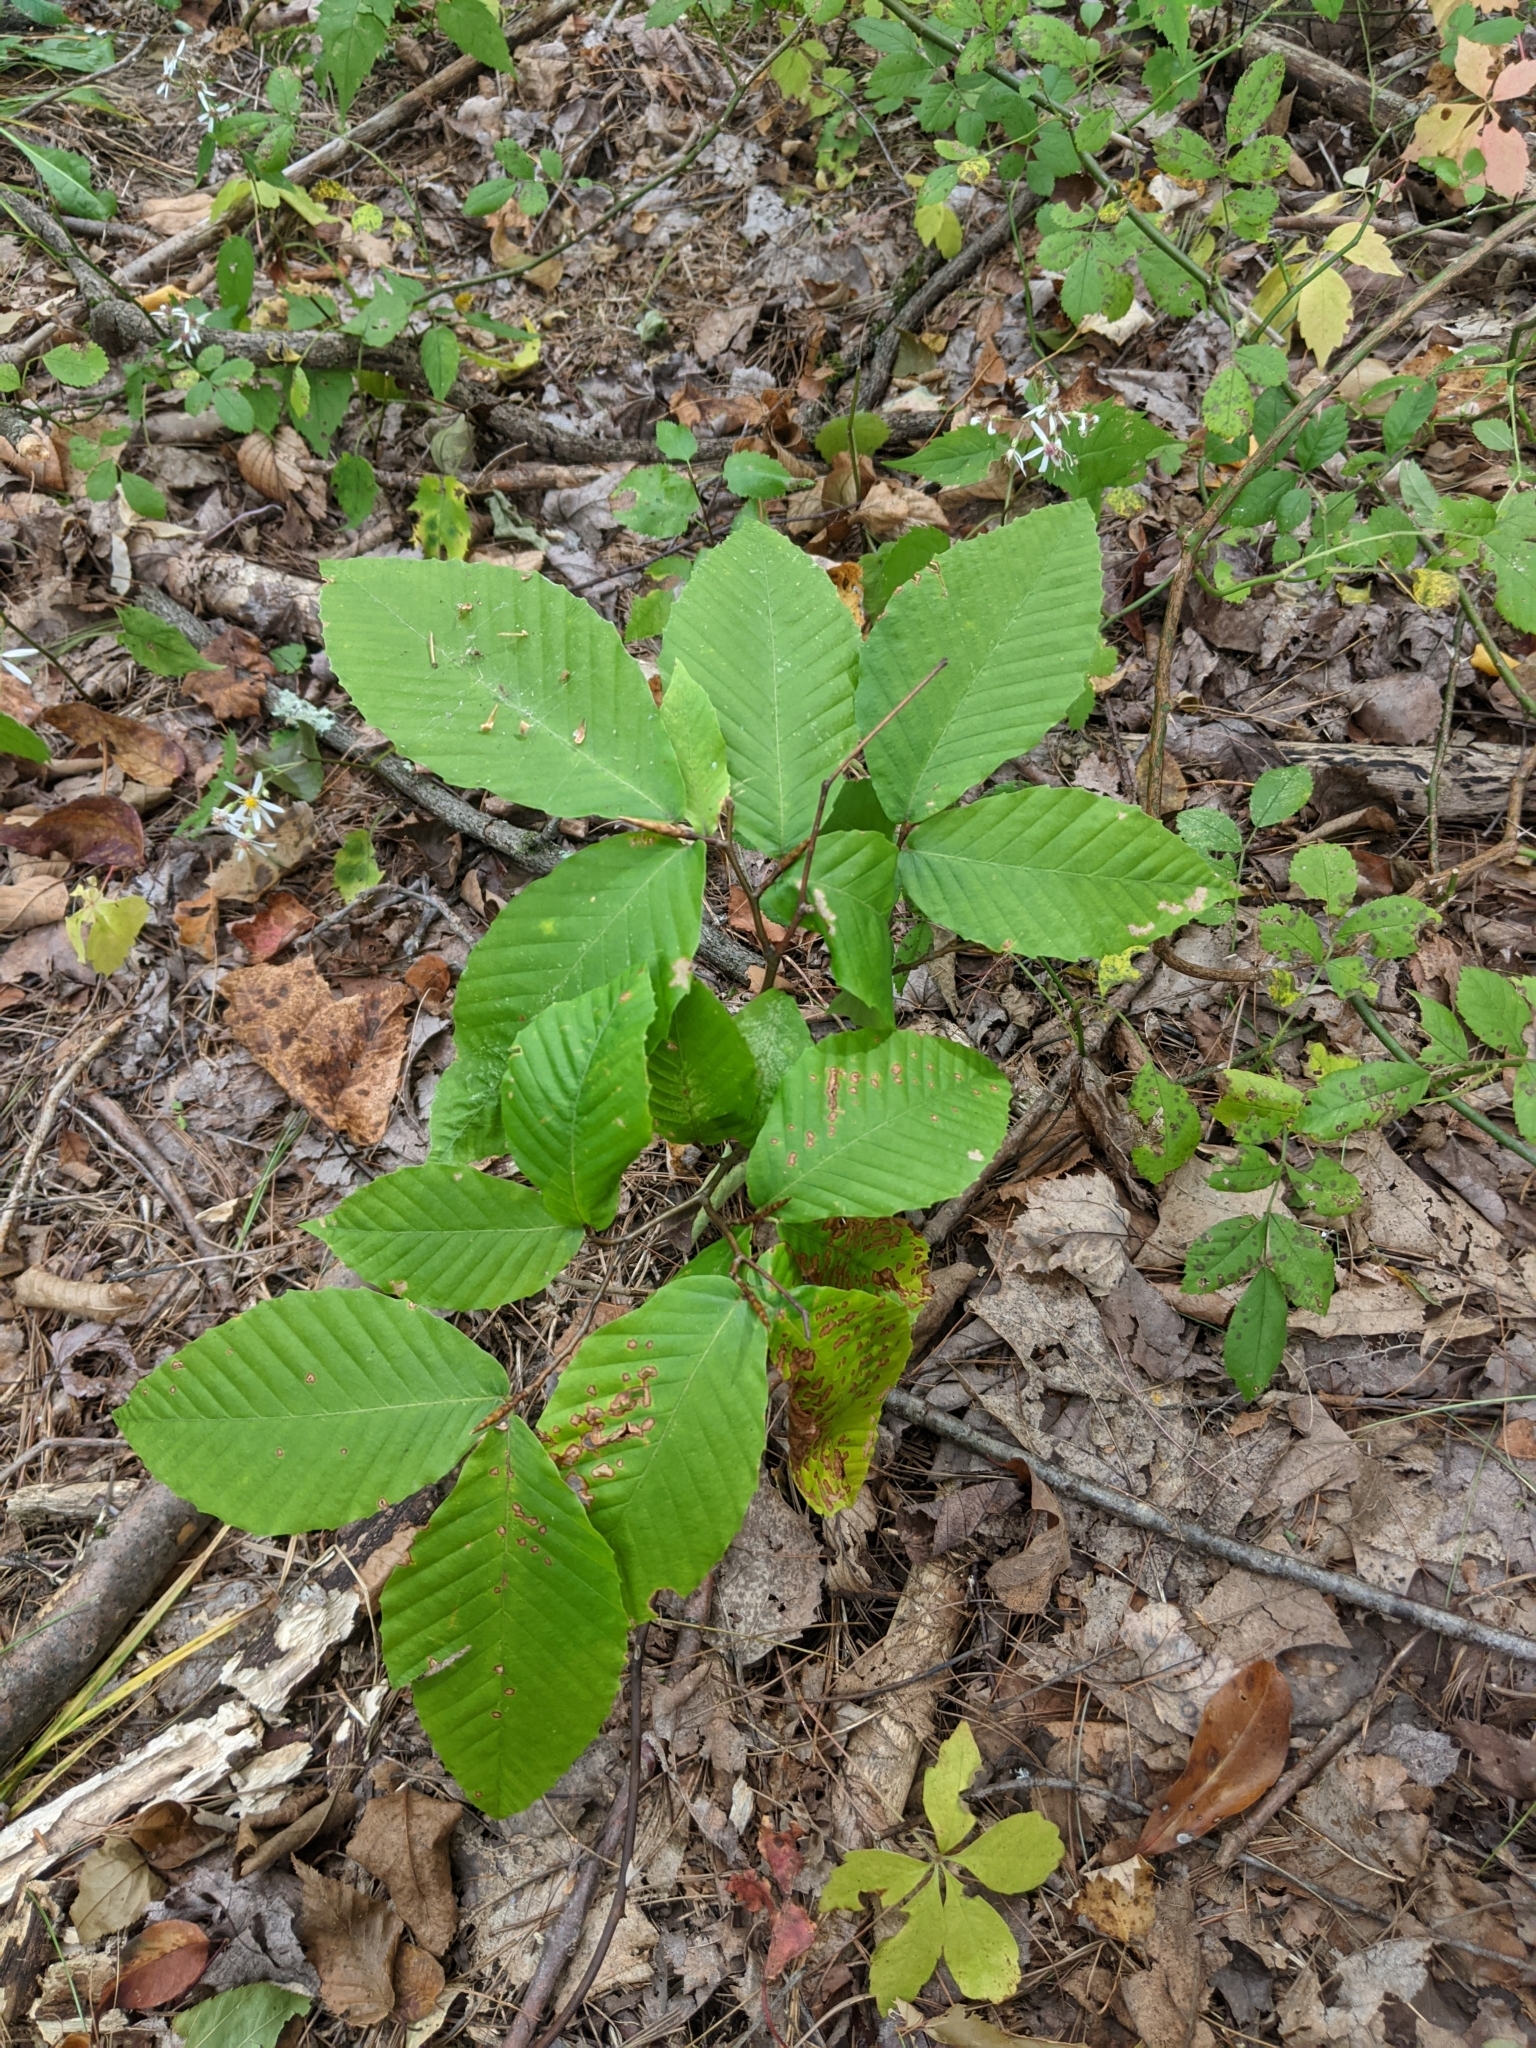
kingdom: Plantae
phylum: Tracheophyta
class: Magnoliopsida
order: Fagales
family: Fagaceae
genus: Fagus
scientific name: Fagus grandifolia
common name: American beech
